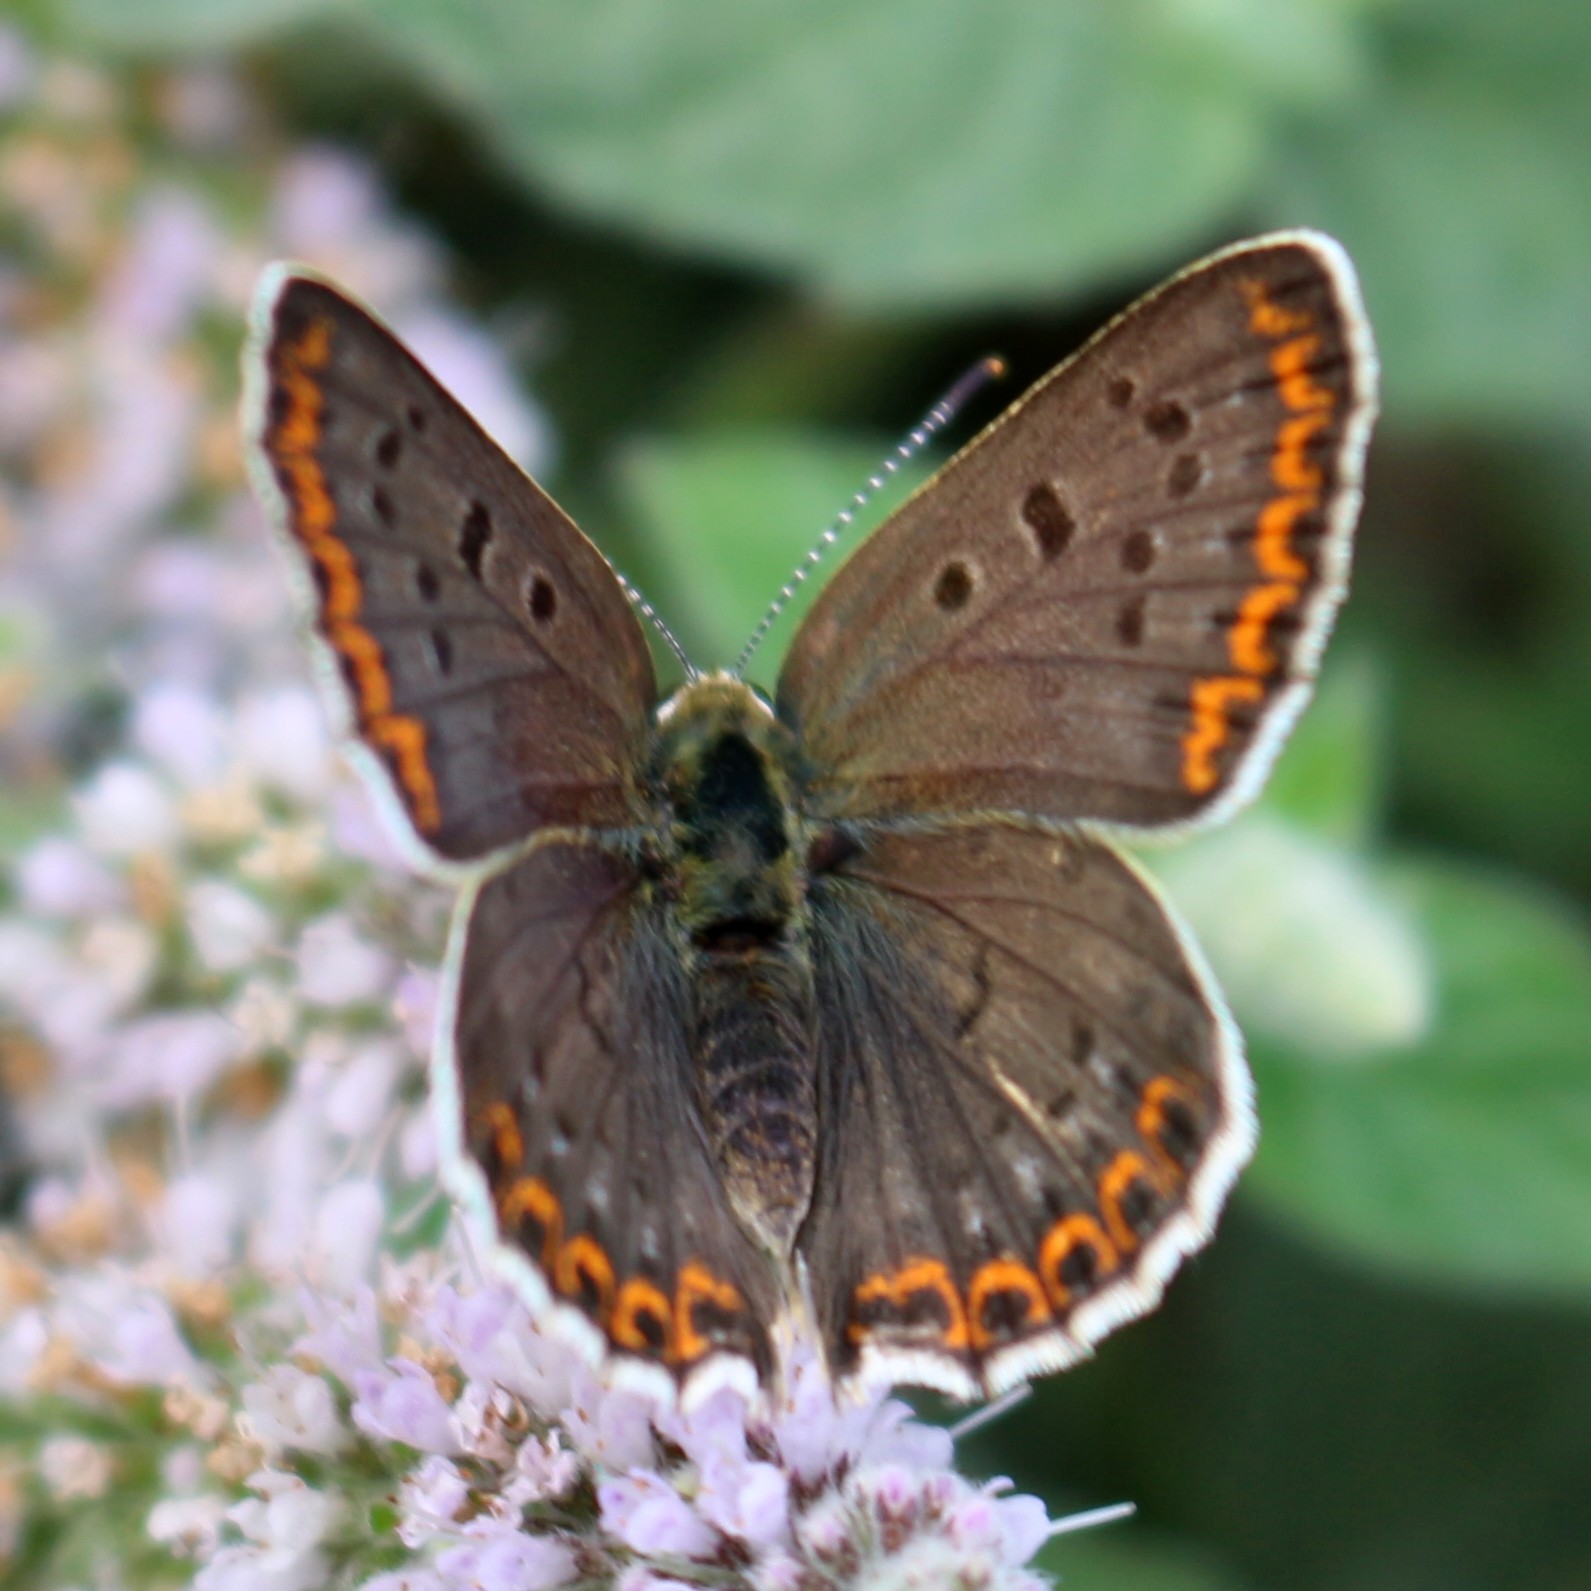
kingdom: Animalia
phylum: Arthropoda
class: Insecta
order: Lepidoptera
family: Lycaenidae
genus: Loweia
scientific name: Loweia tityrus
